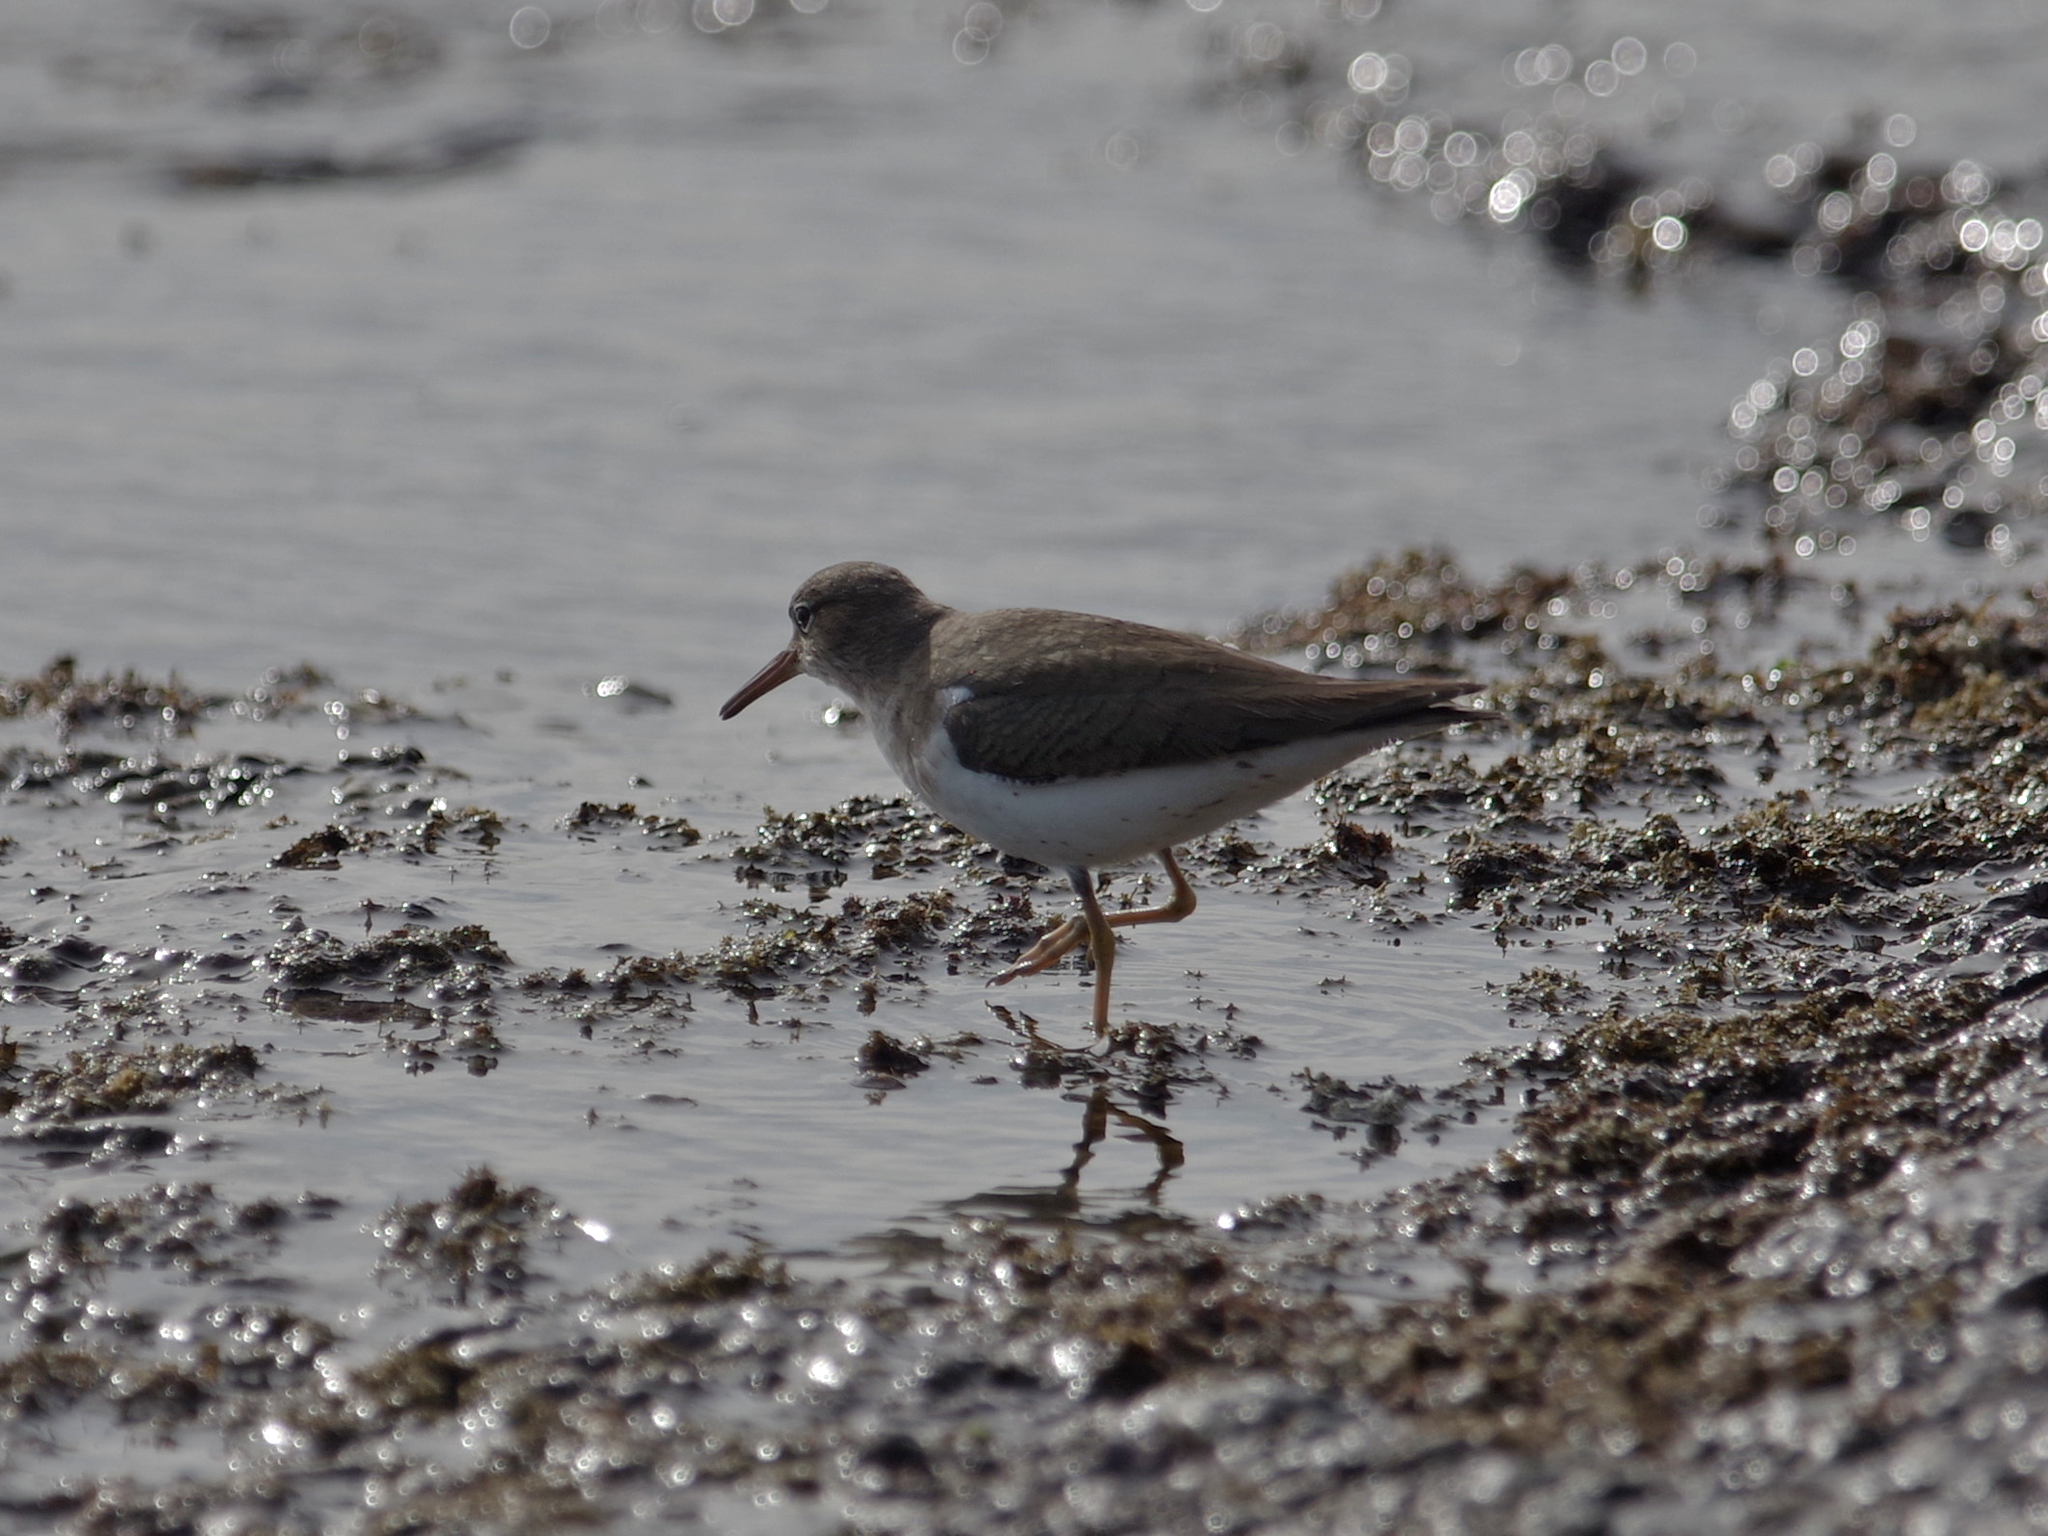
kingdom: Animalia
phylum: Chordata
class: Aves
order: Charadriiformes
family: Scolopacidae
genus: Actitis
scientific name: Actitis macularius
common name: Spotted sandpiper
